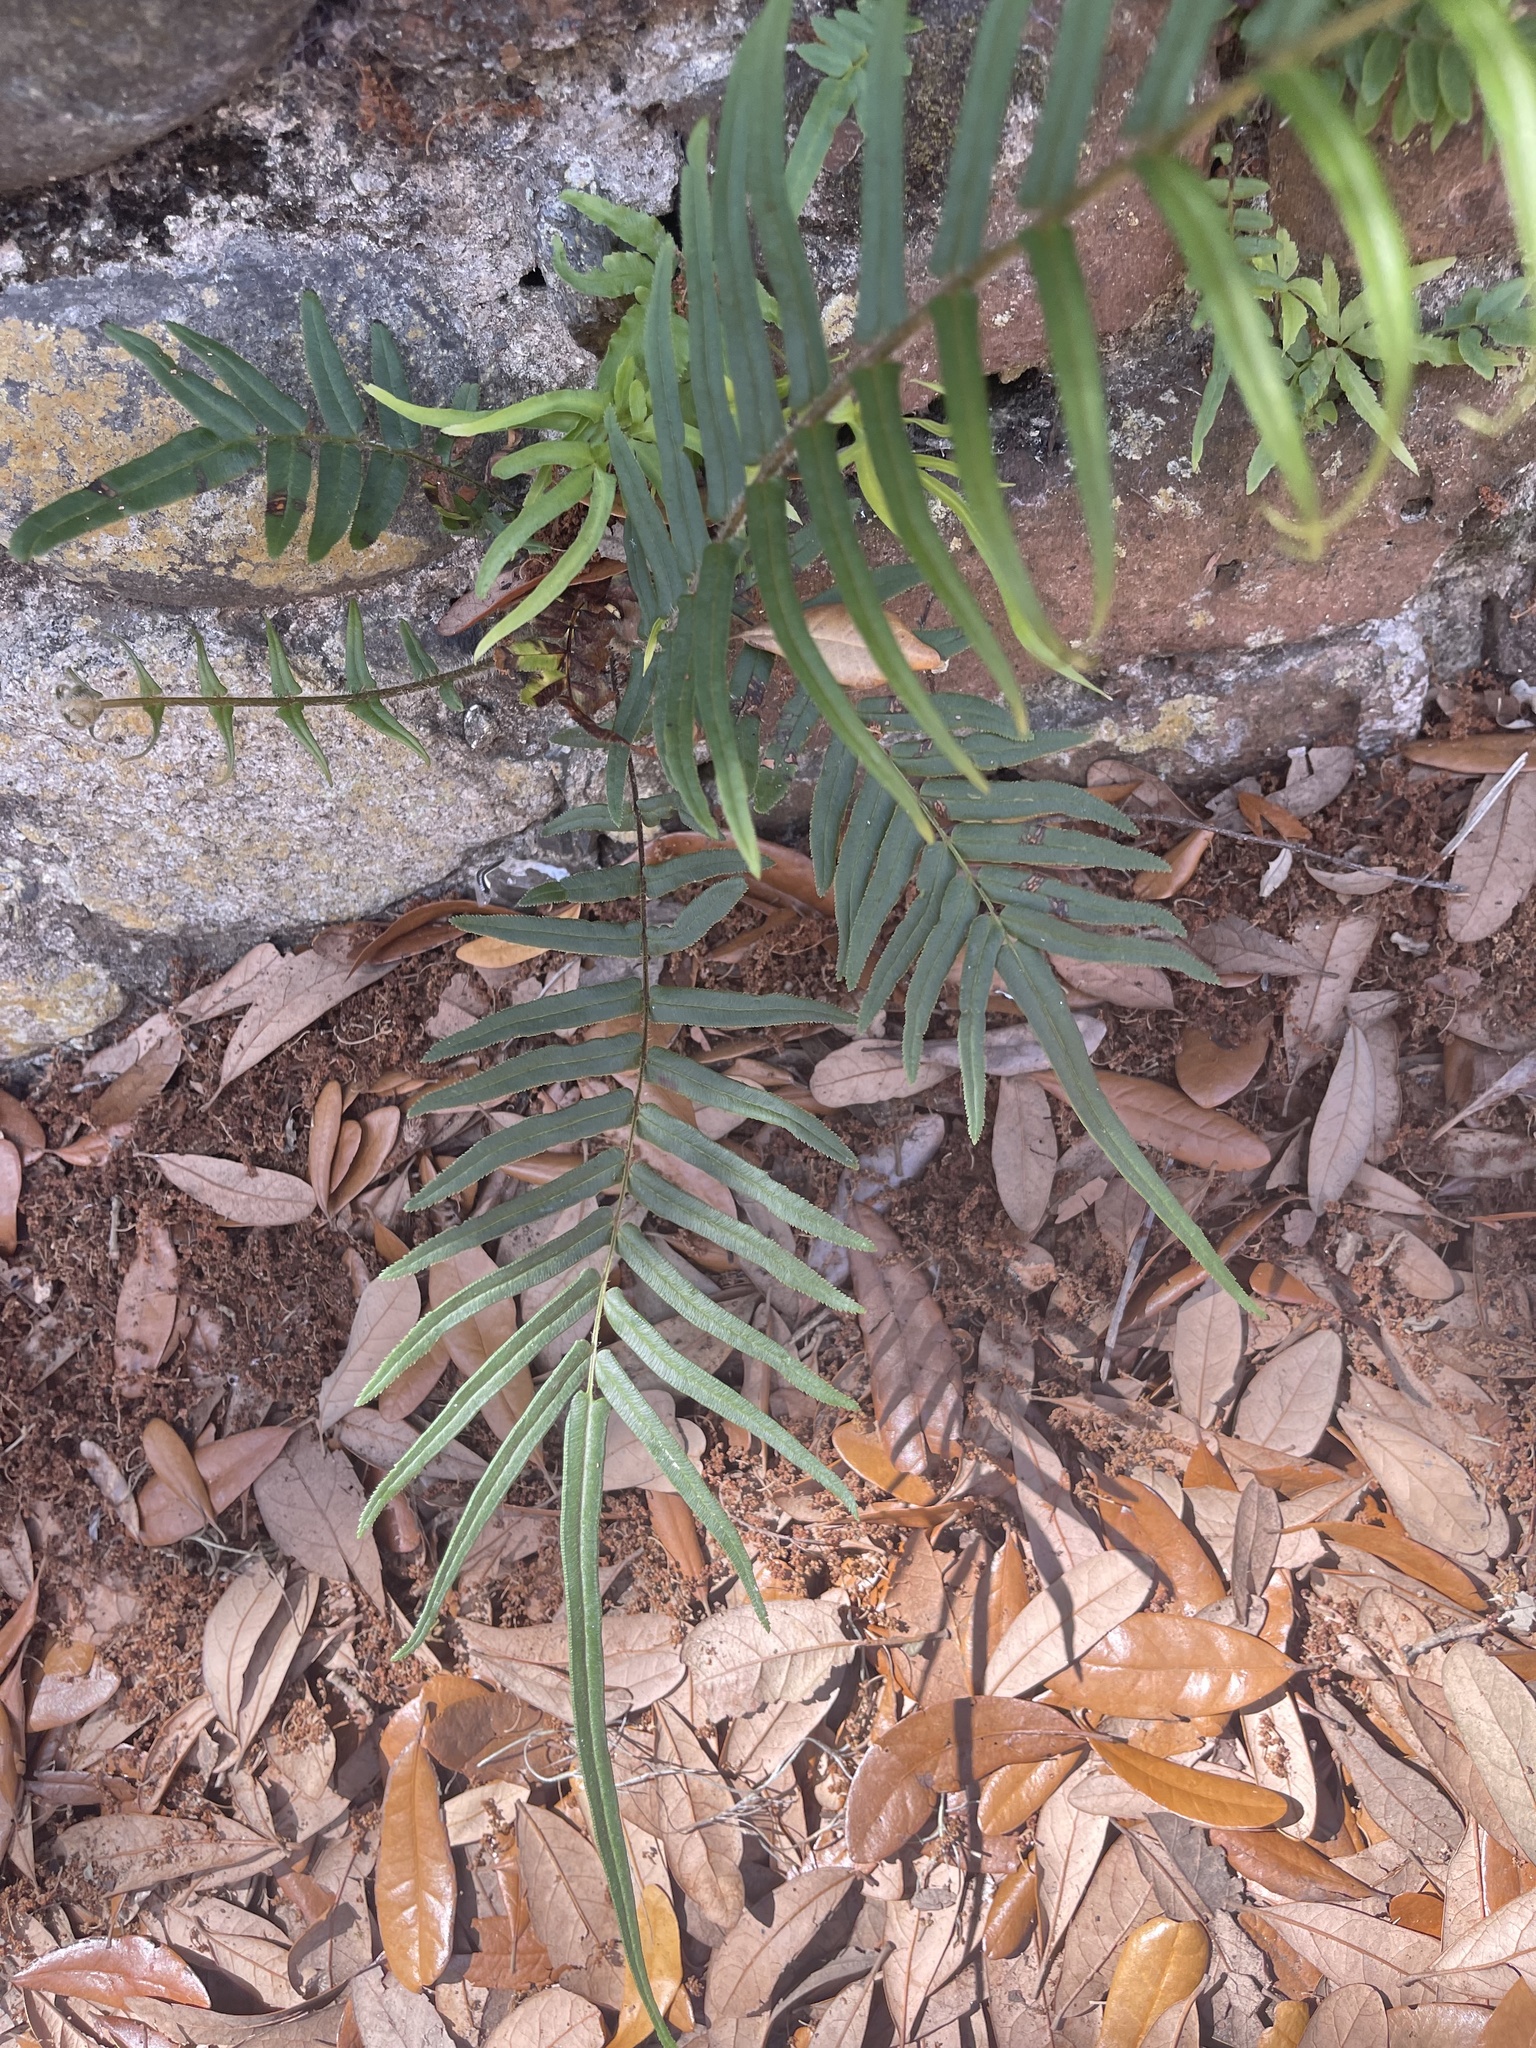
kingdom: Plantae
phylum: Tracheophyta
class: Polypodiopsida
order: Polypodiales
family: Pteridaceae
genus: Pteris
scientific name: Pteris vittata
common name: Ladder brake
